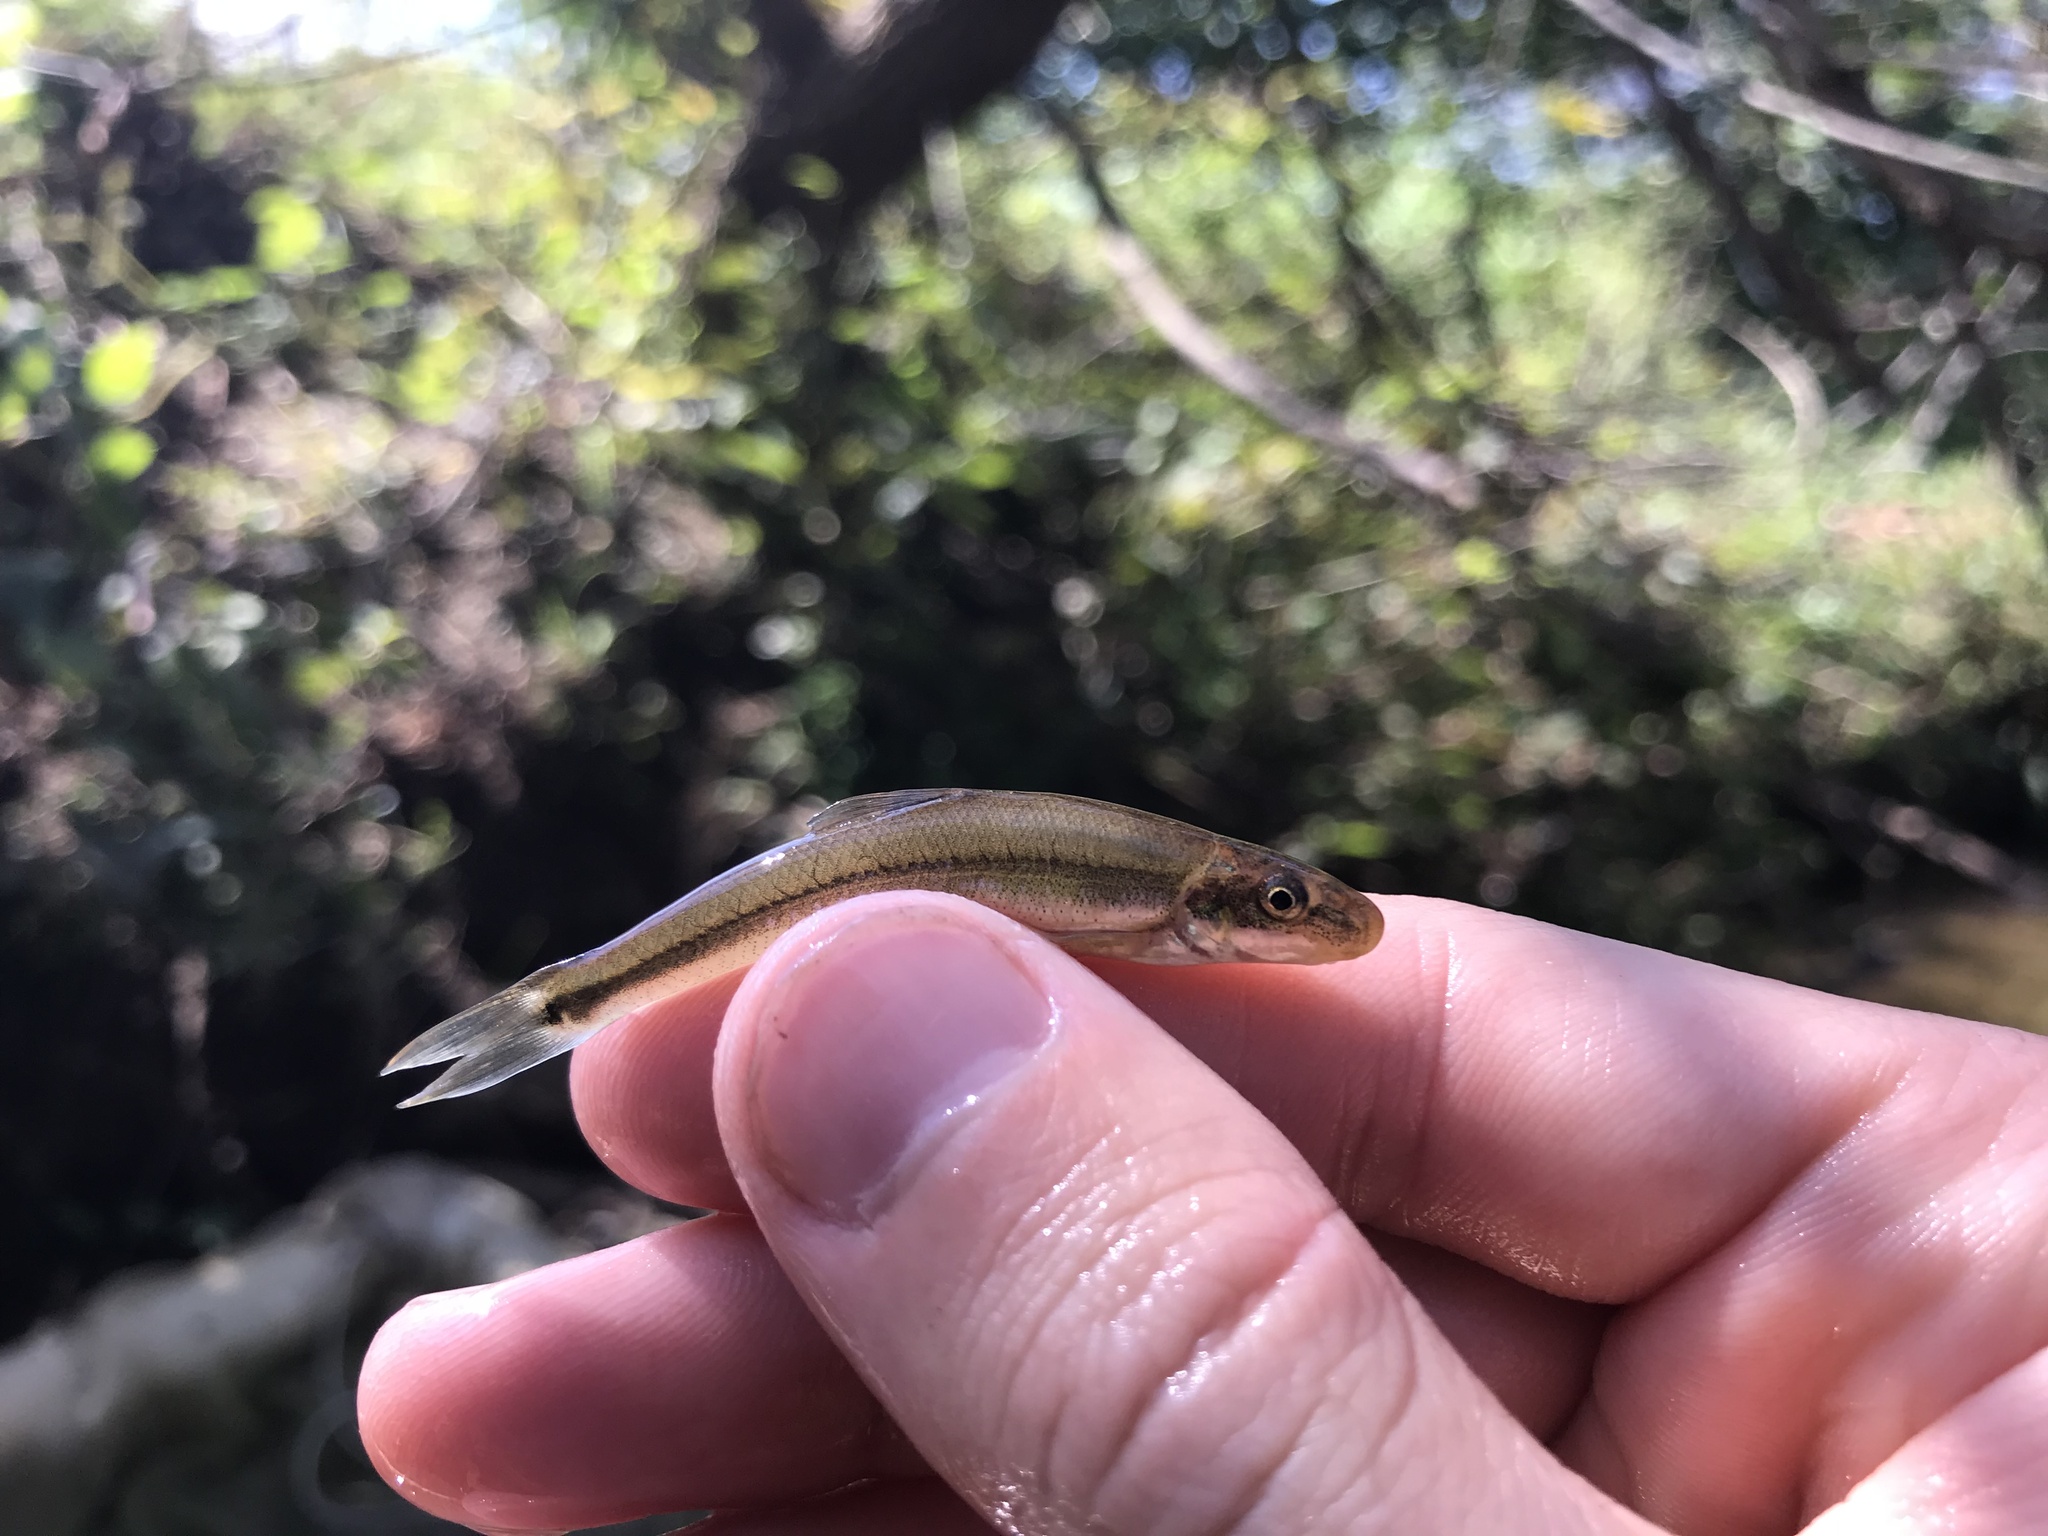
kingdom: Animalia
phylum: Chordata
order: Cypriniformes
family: Cyprinidae
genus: Phenacobius
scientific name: Phenacobius crassilabrum
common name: Fatlips minnow
